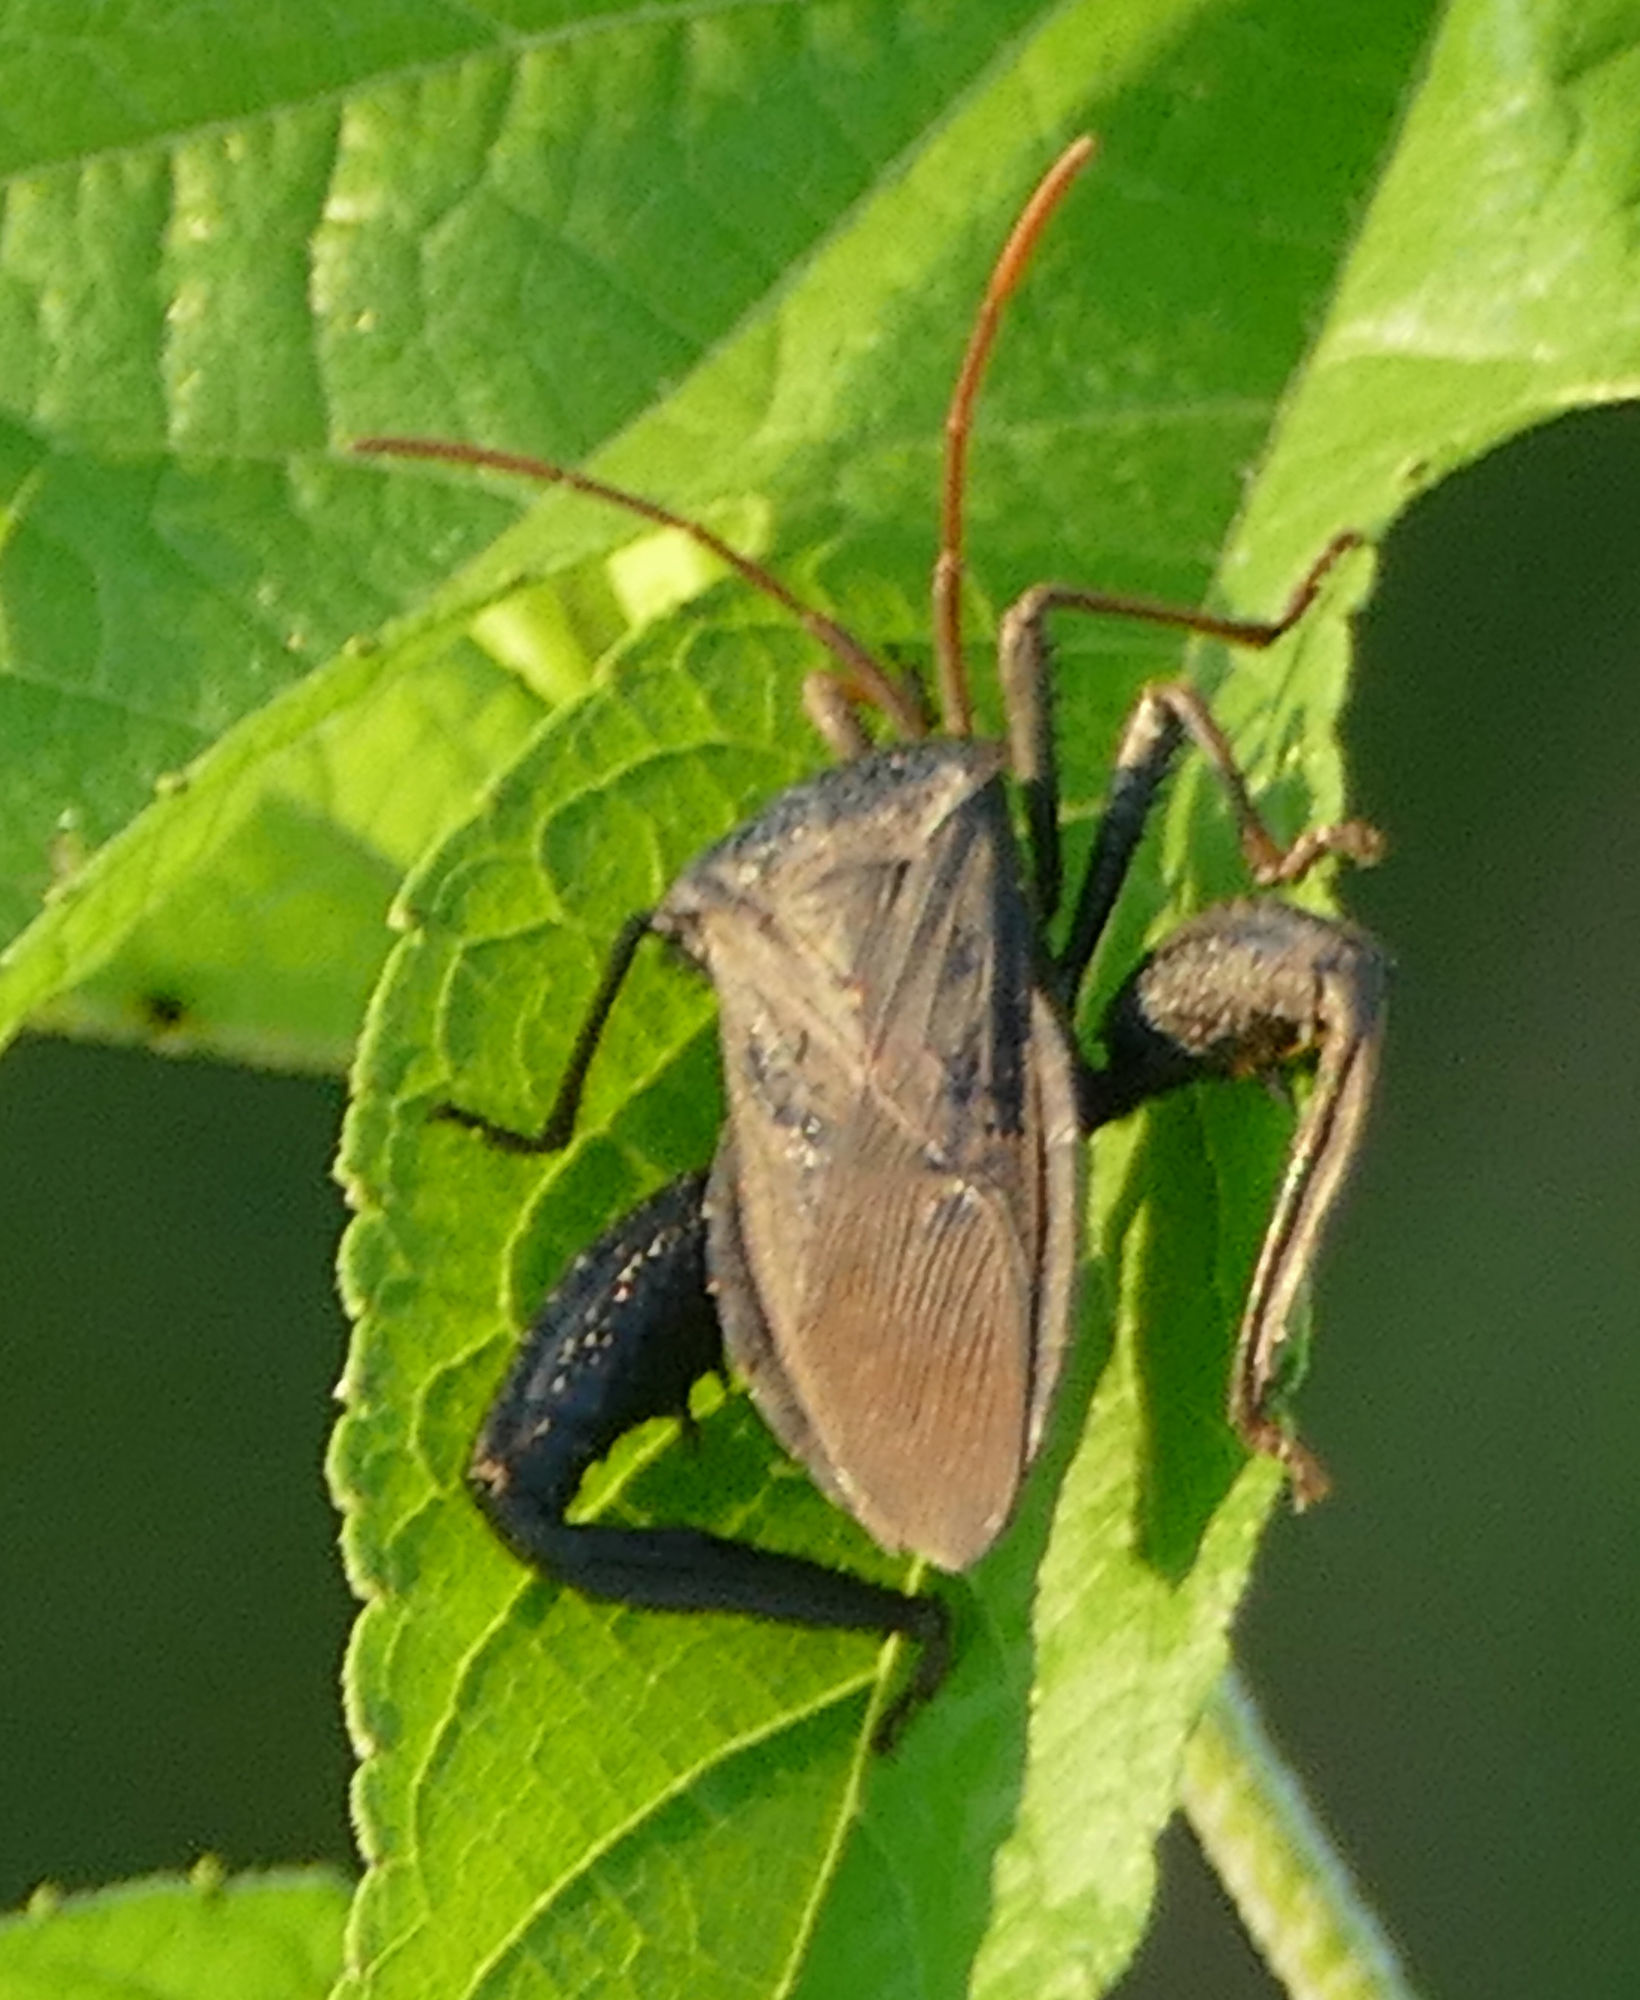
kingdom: Animalia
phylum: Arthropoda
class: Insecta
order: Hemiptera
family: Coreidae
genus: Acanthocephala
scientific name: Acanthocephala femorata
